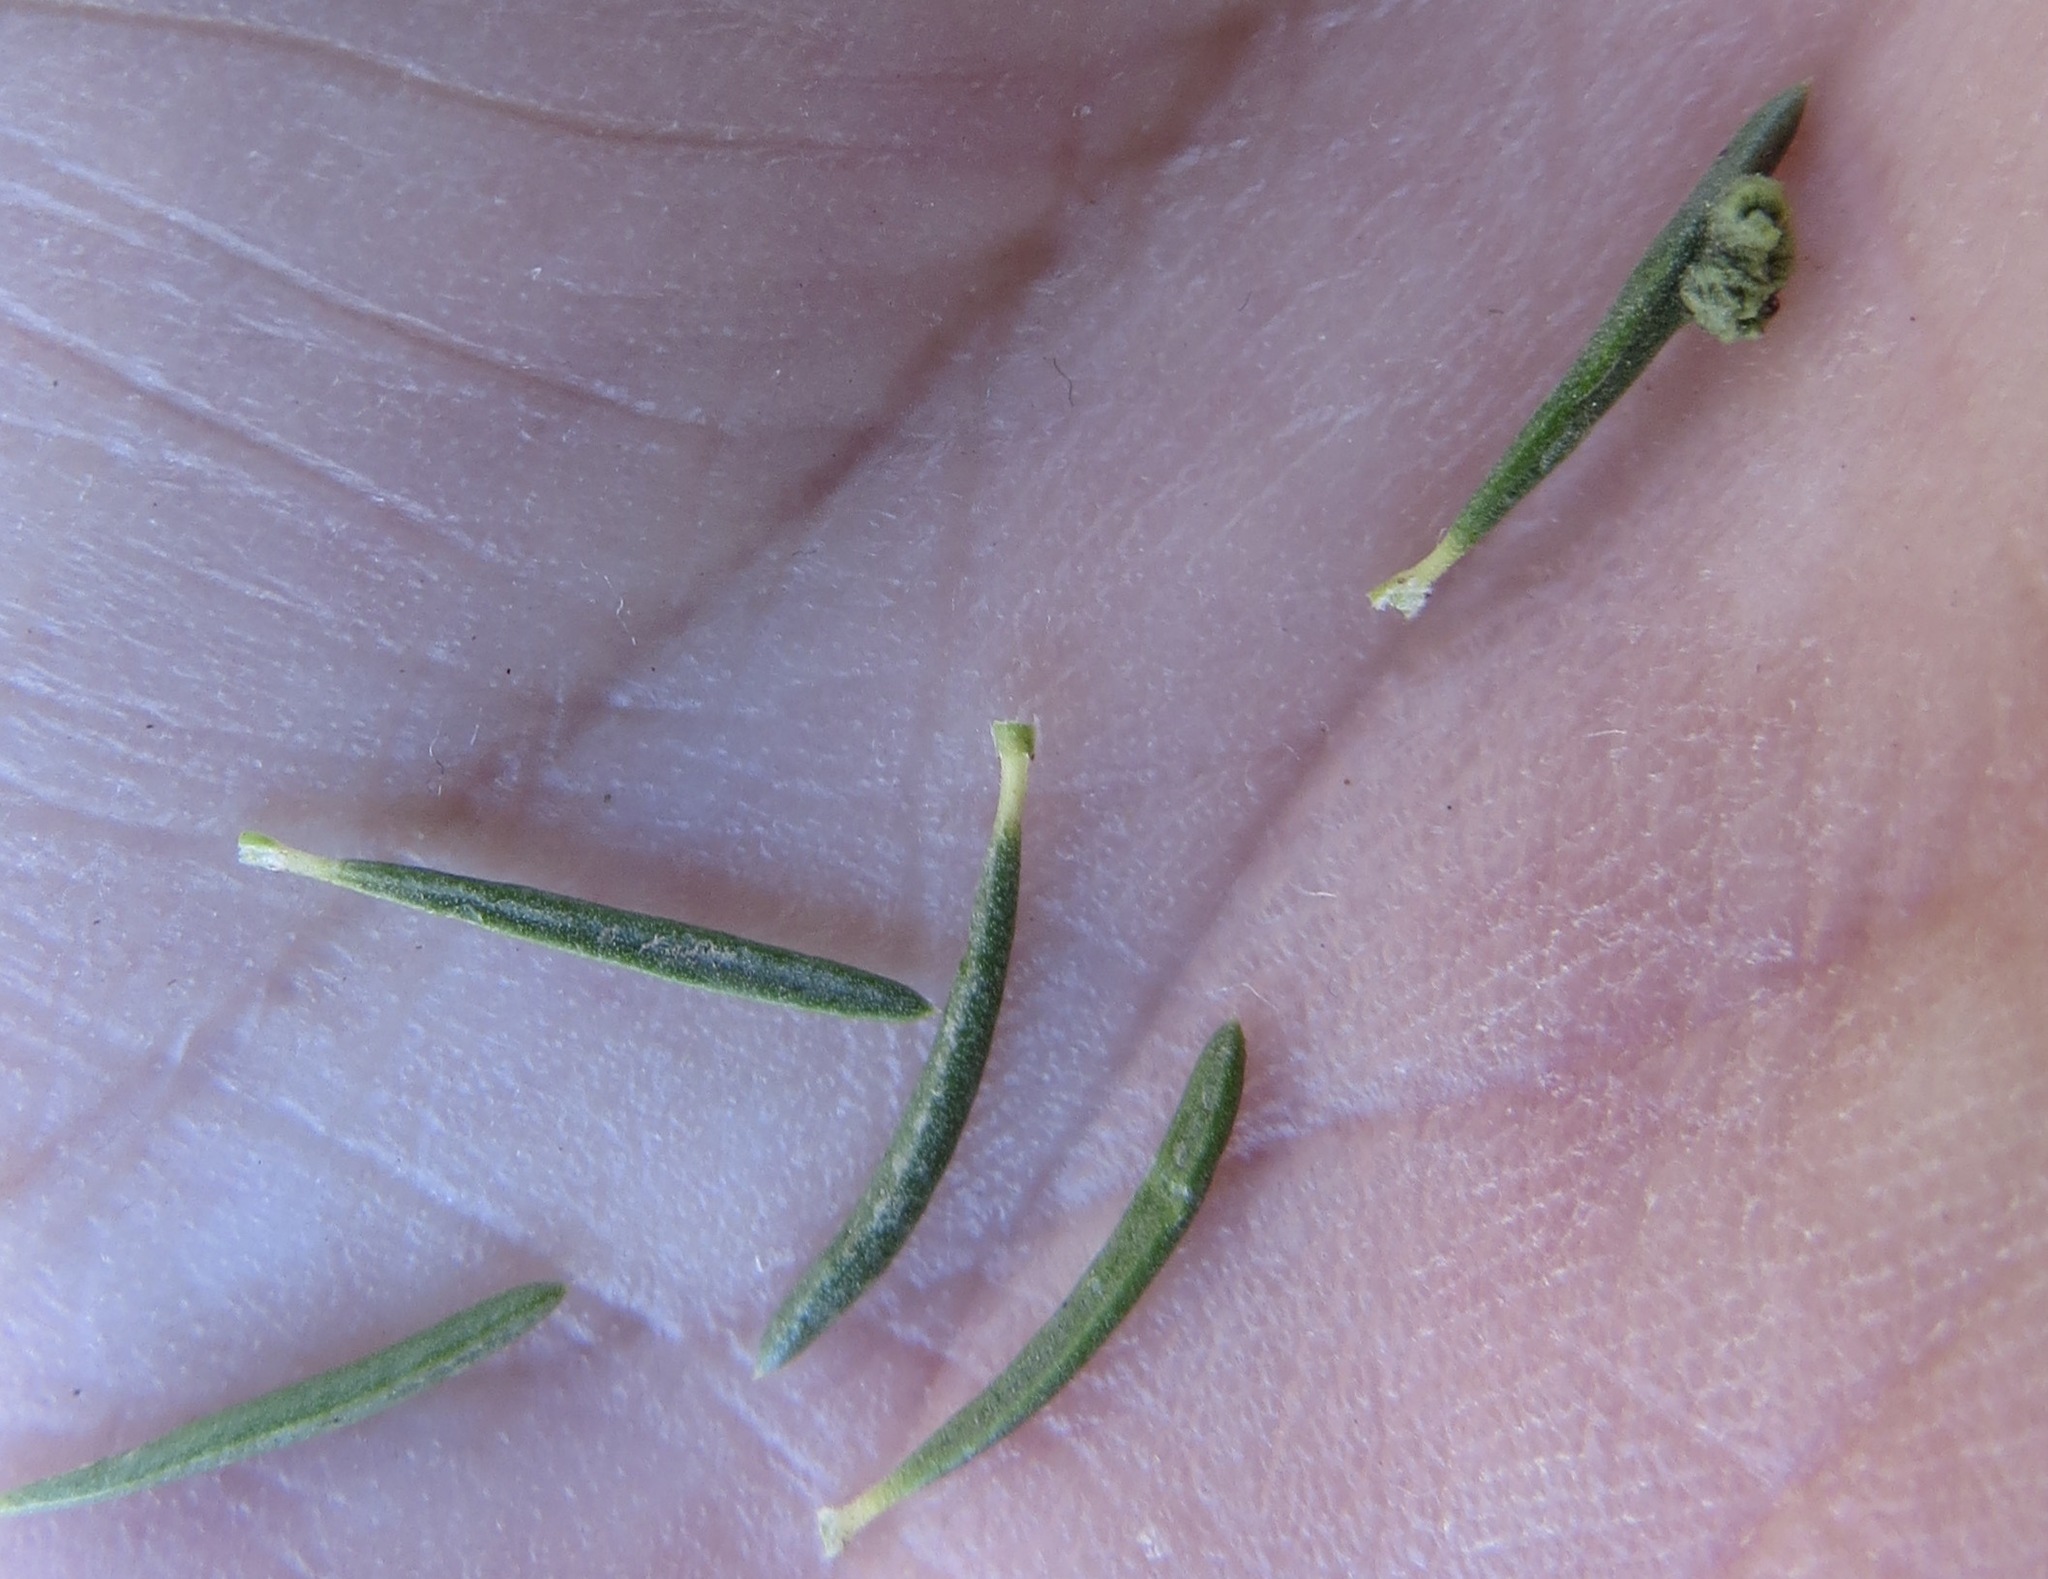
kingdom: Animalia
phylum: Arthropoda
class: Arachnida
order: Trombidiformes
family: Eriophyidae
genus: Eriophyes
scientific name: Eriophyes
